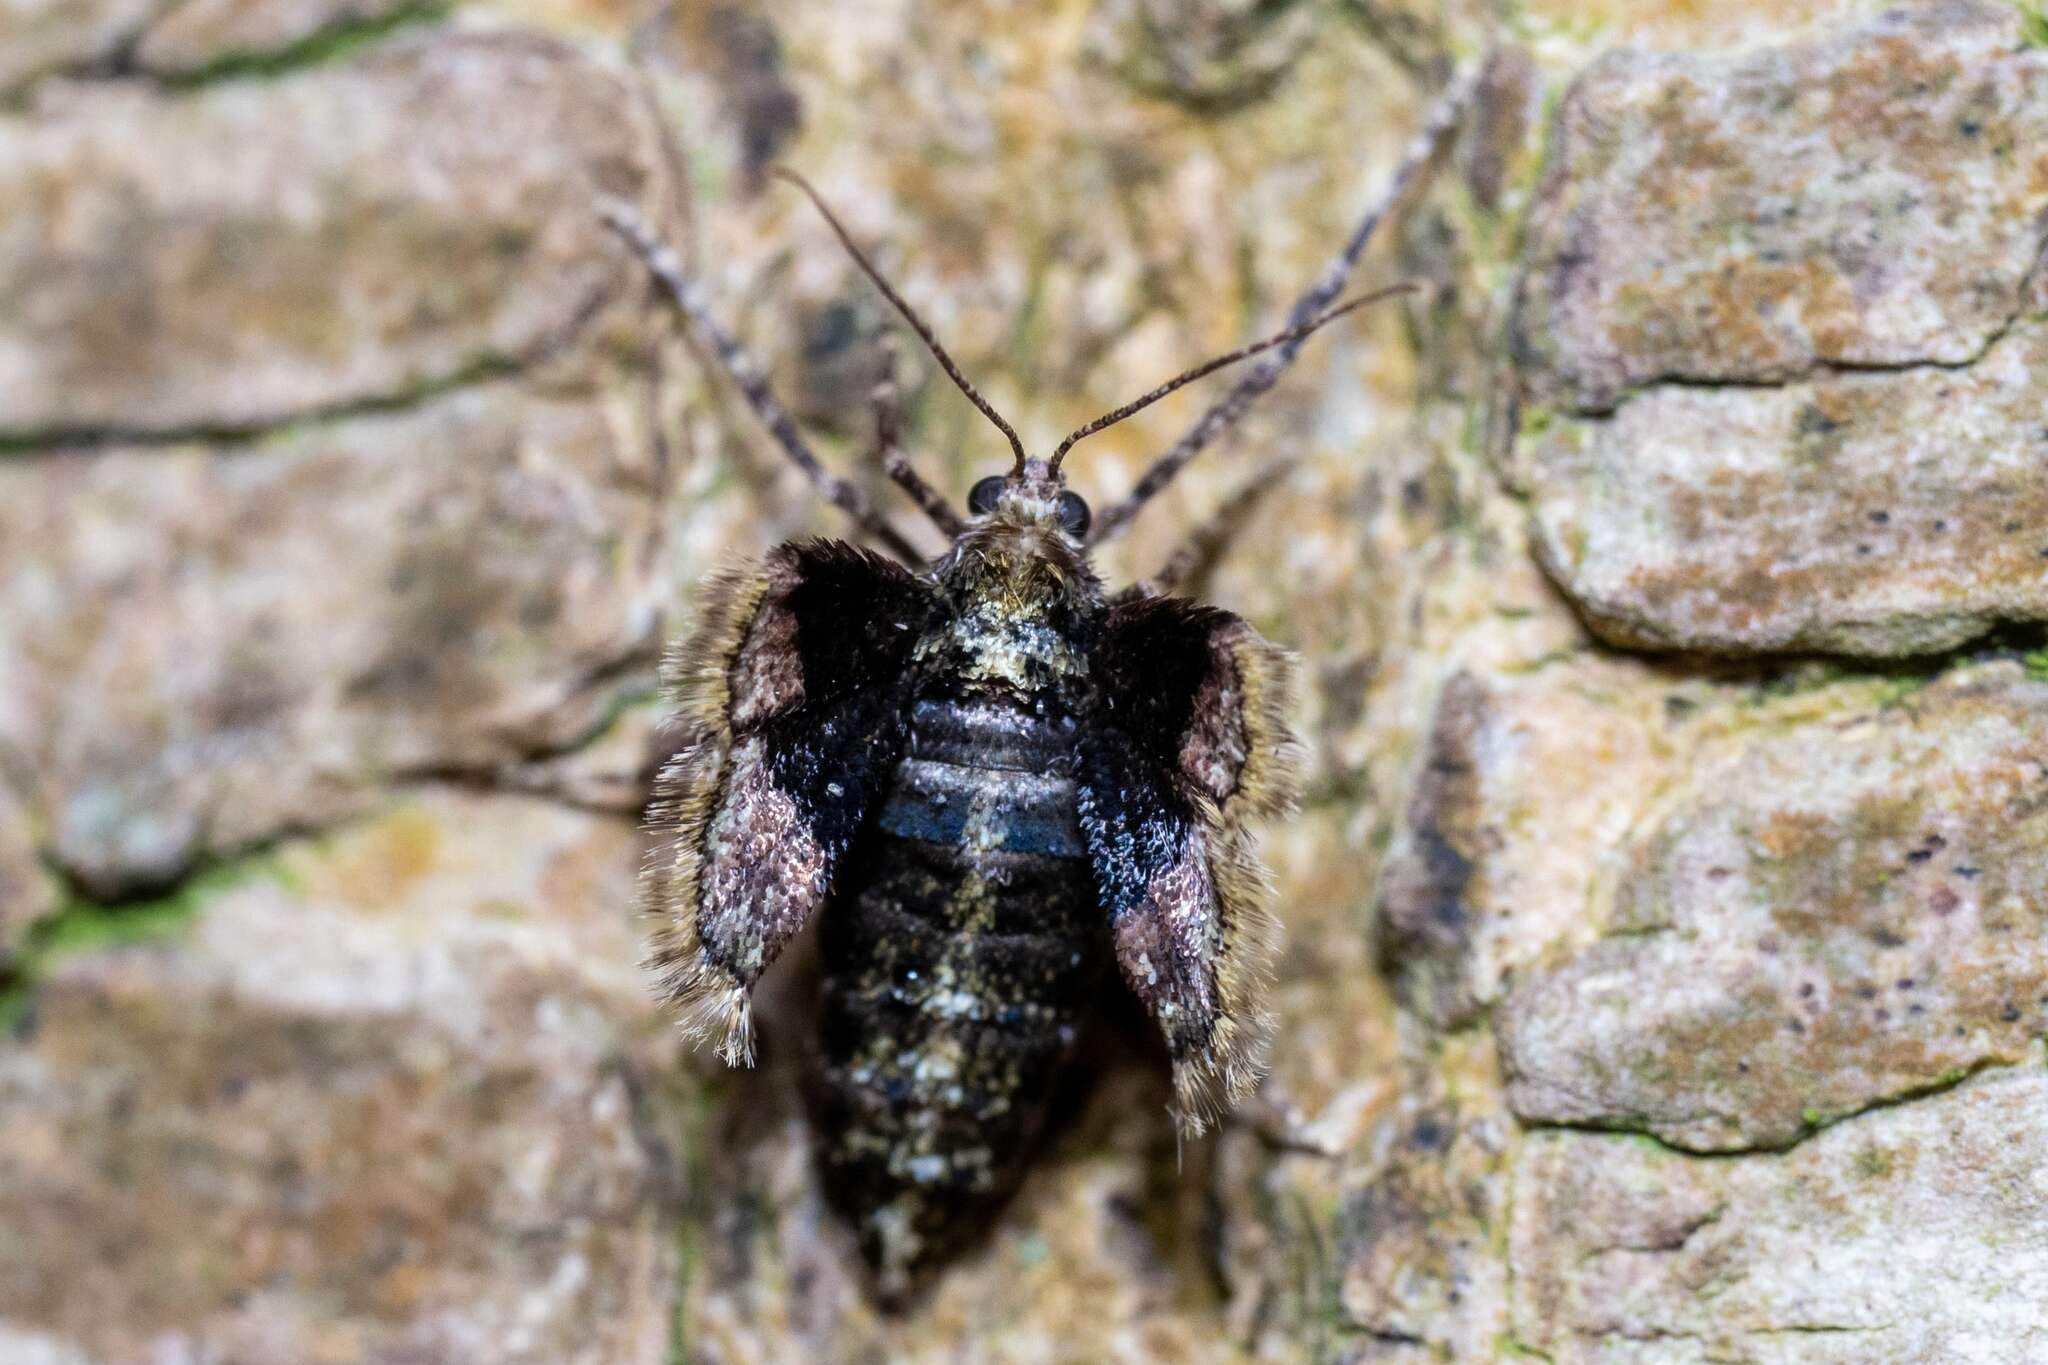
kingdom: Animalia
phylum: Arthropoda
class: Insecta
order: Lepidoptera
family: Geometridae
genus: Agriopis
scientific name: Agriopis marginaria
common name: Dotted border
